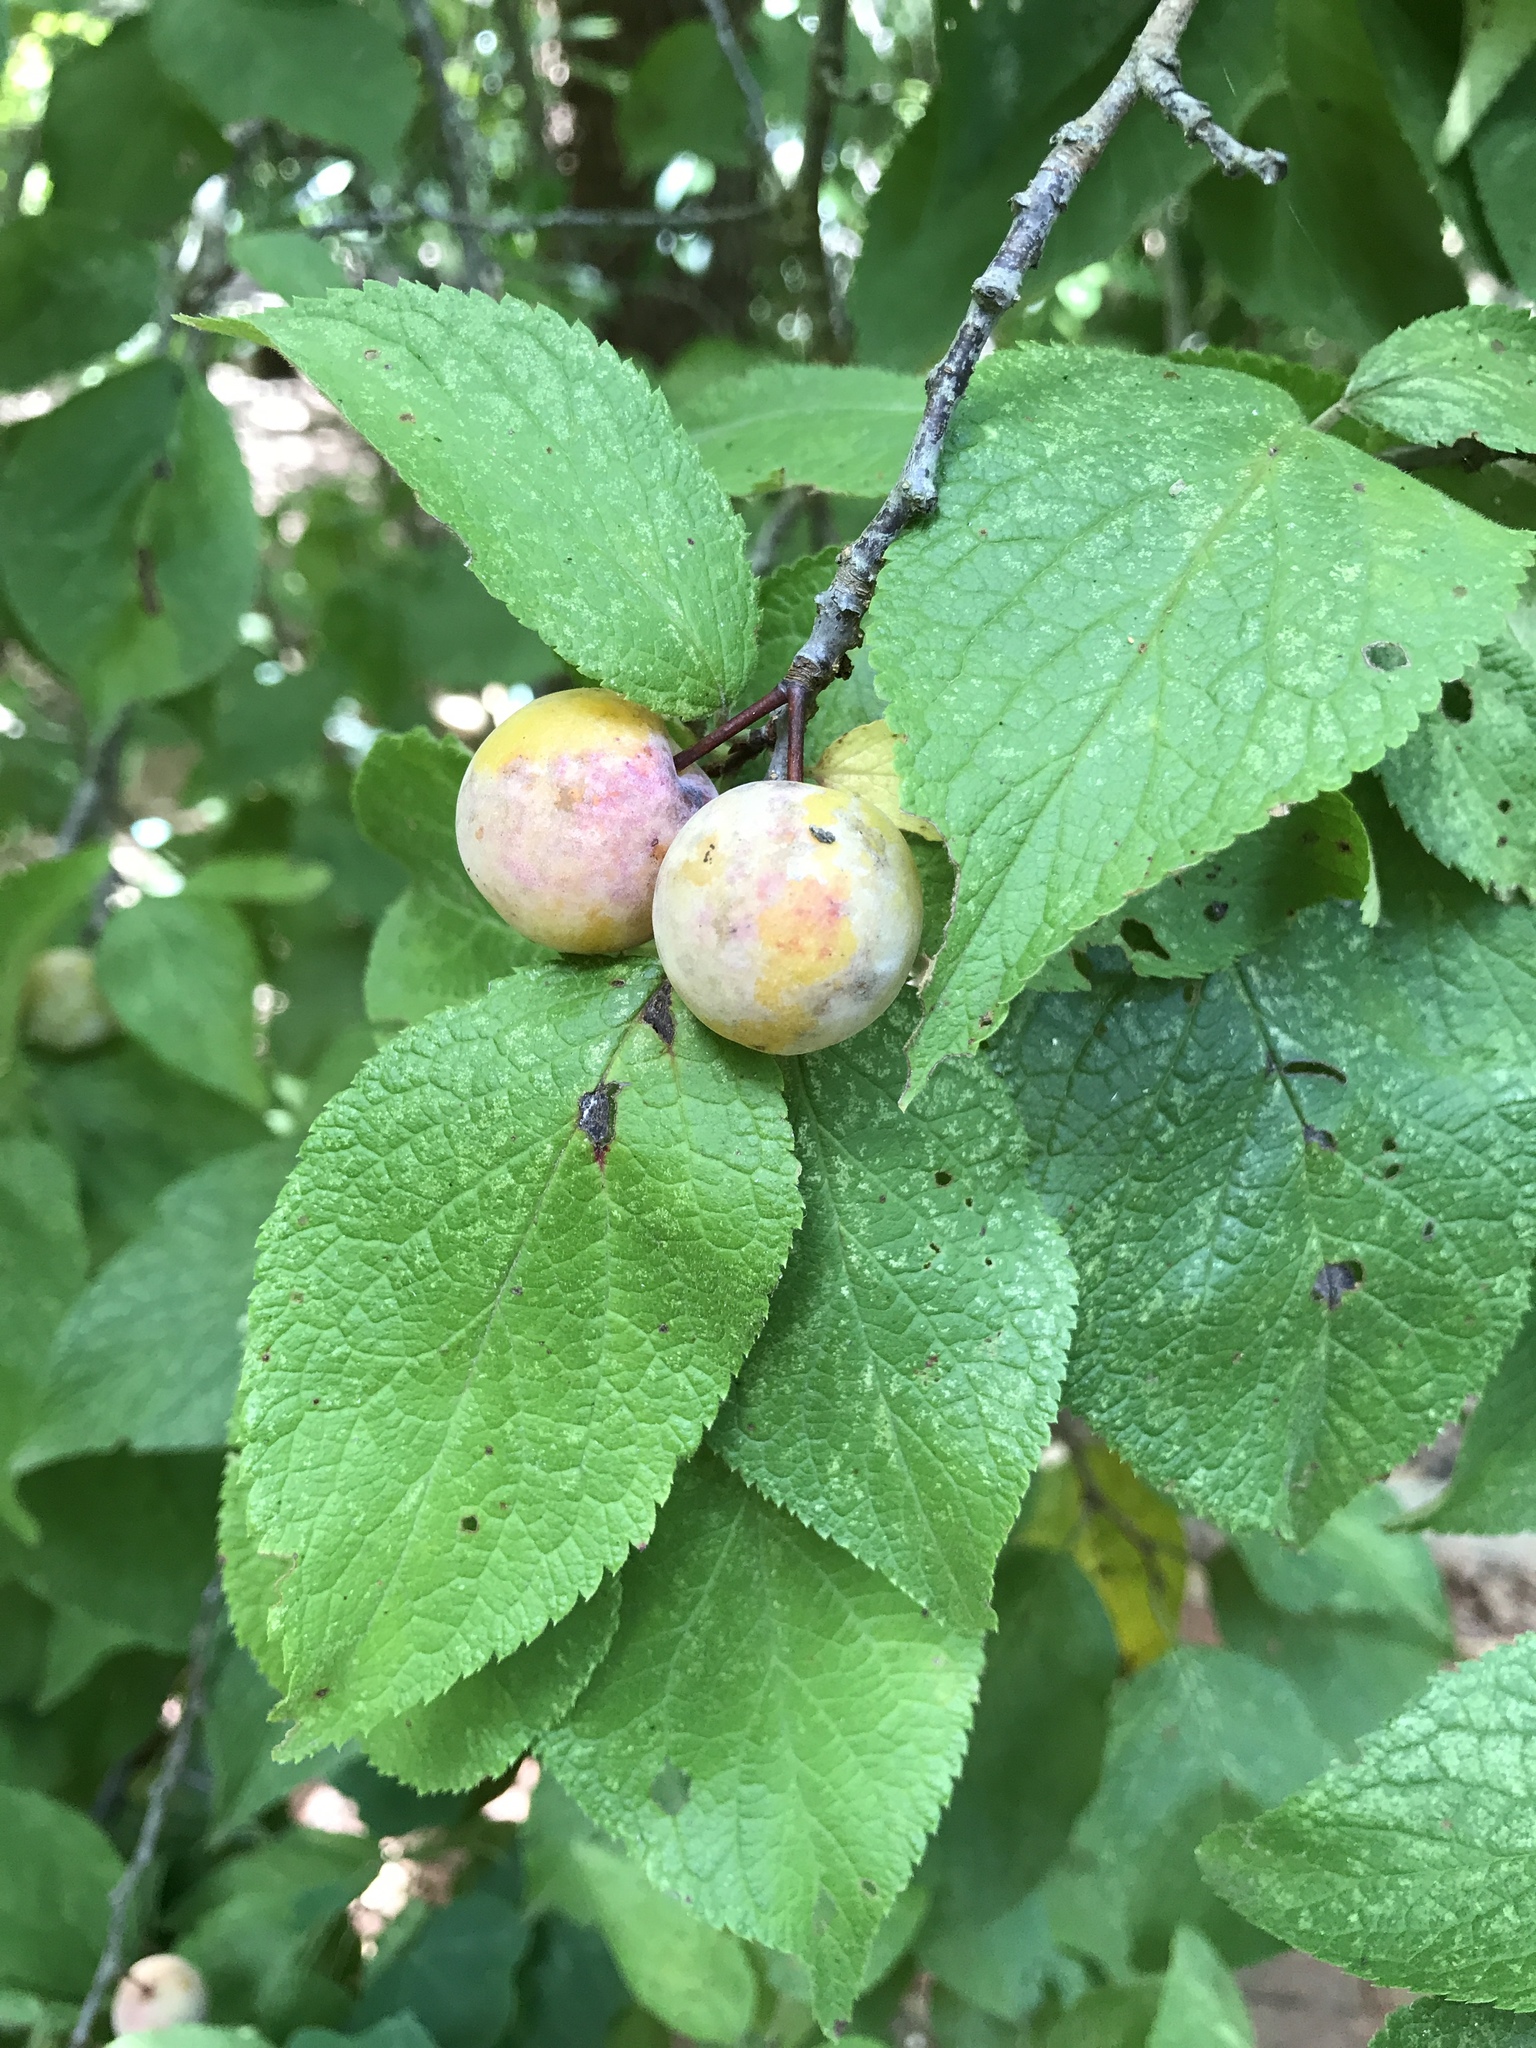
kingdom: Plantae
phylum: Tracheophyta
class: Magnoliopsida
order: Rosales
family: Rosaceae
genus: Prunus
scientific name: Prunus mexicana
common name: Mexican plum
